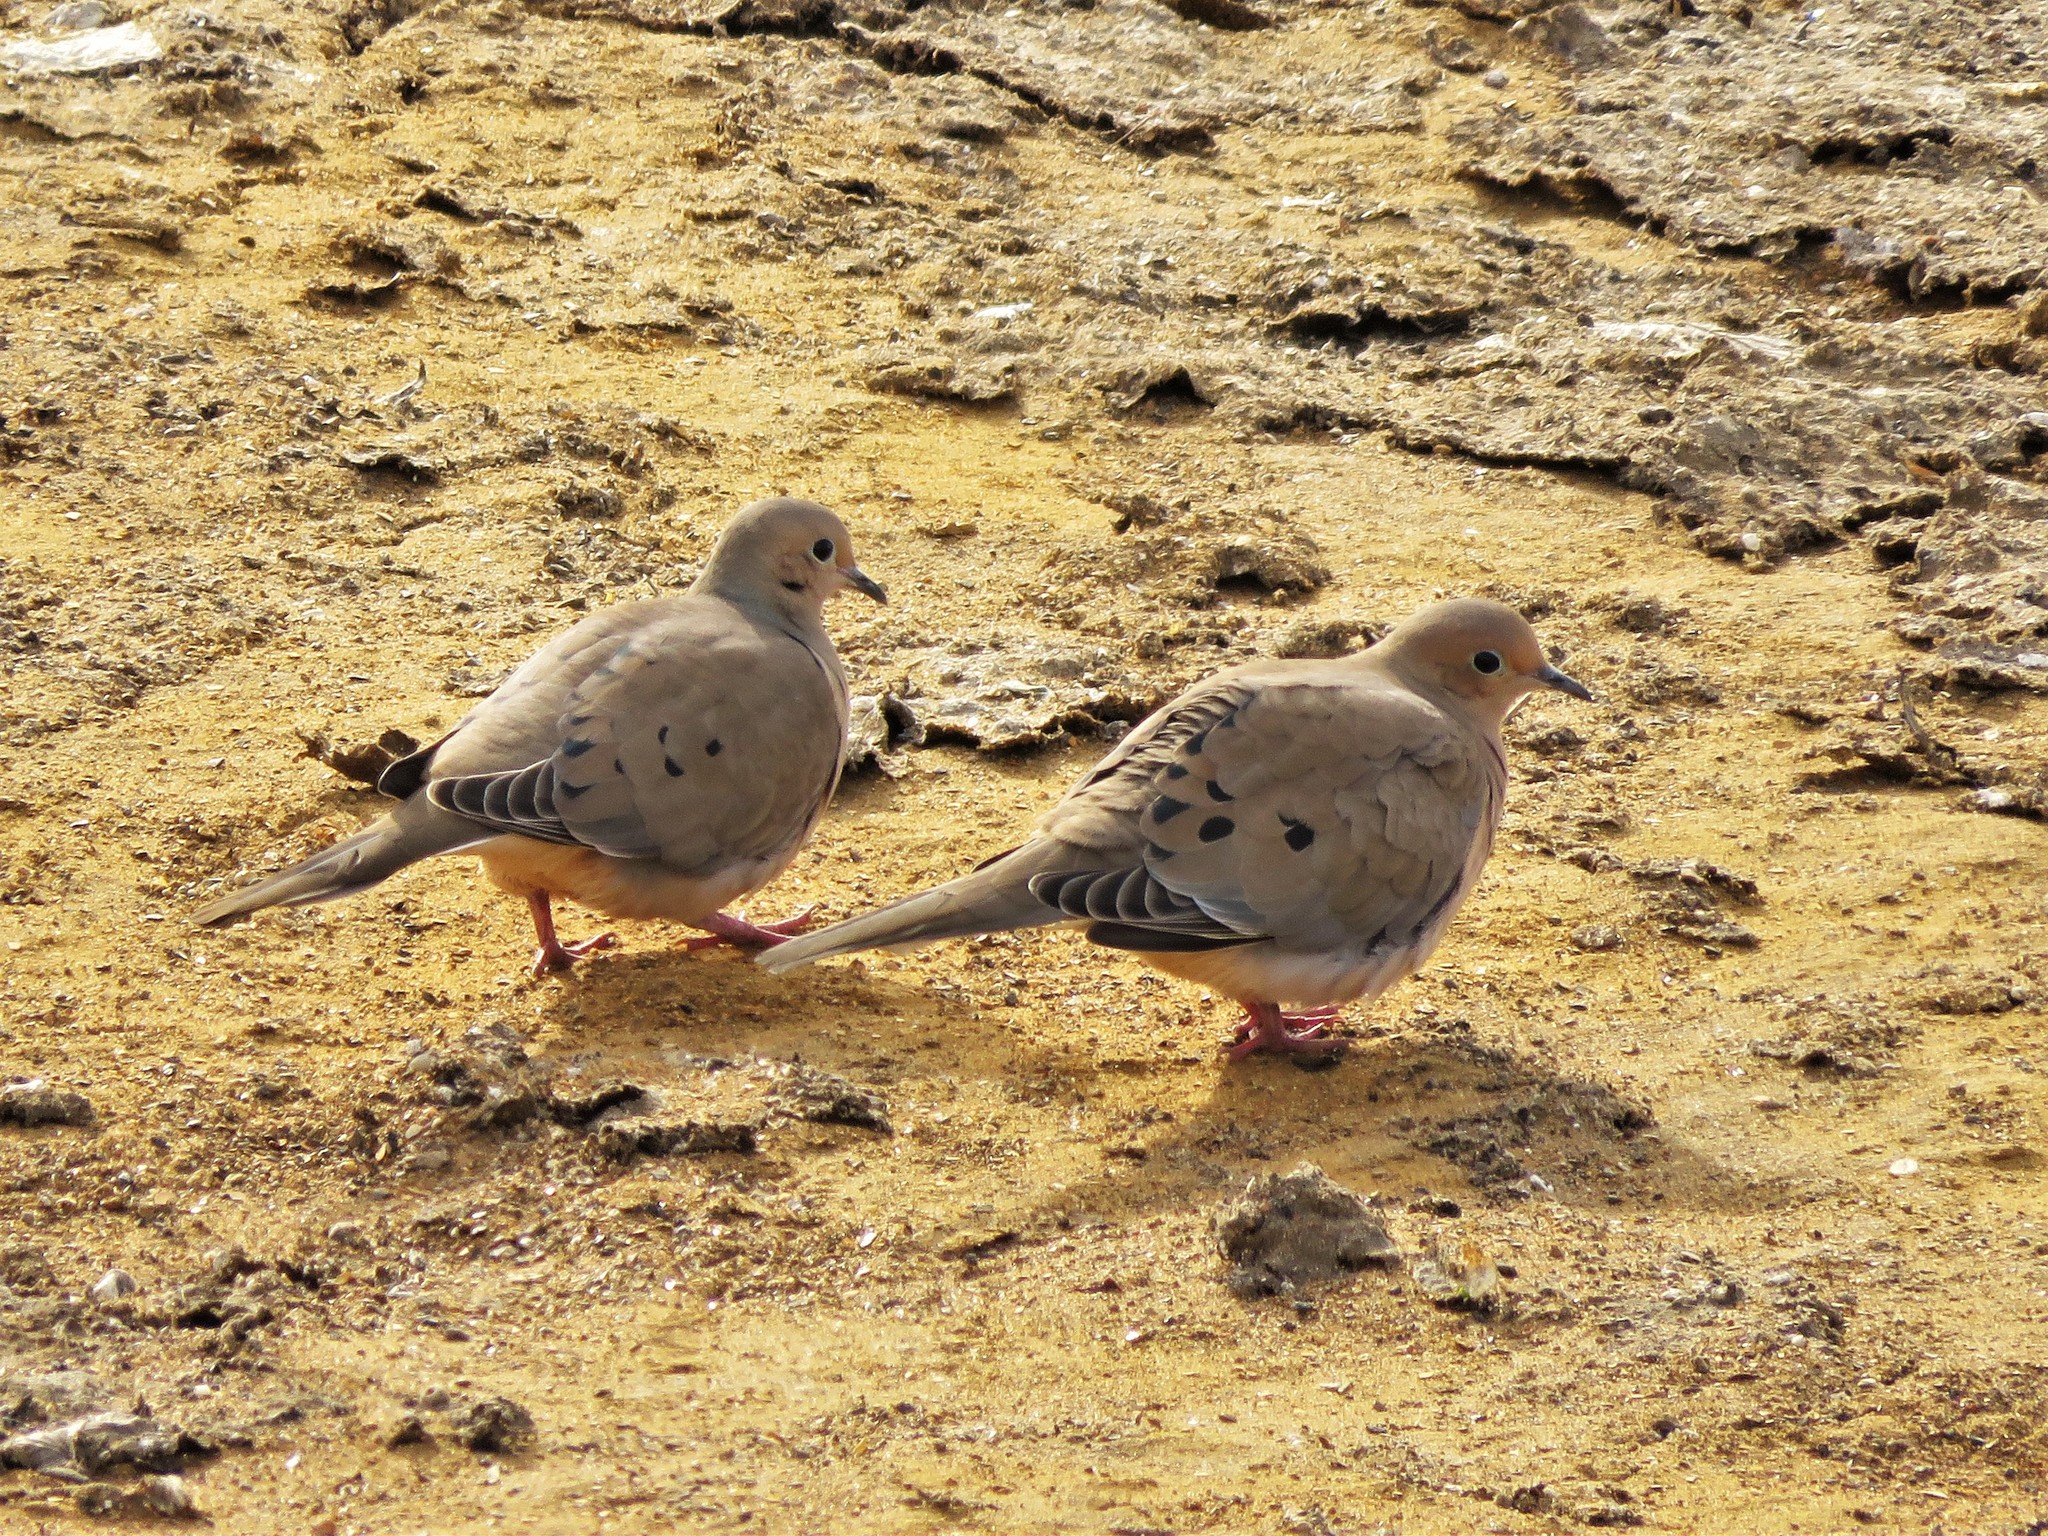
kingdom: Animalia
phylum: Chordata
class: Aves
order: Columbiformes
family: Columbidae
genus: Zenaida
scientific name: Zenaida macroura
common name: Mourning dove
